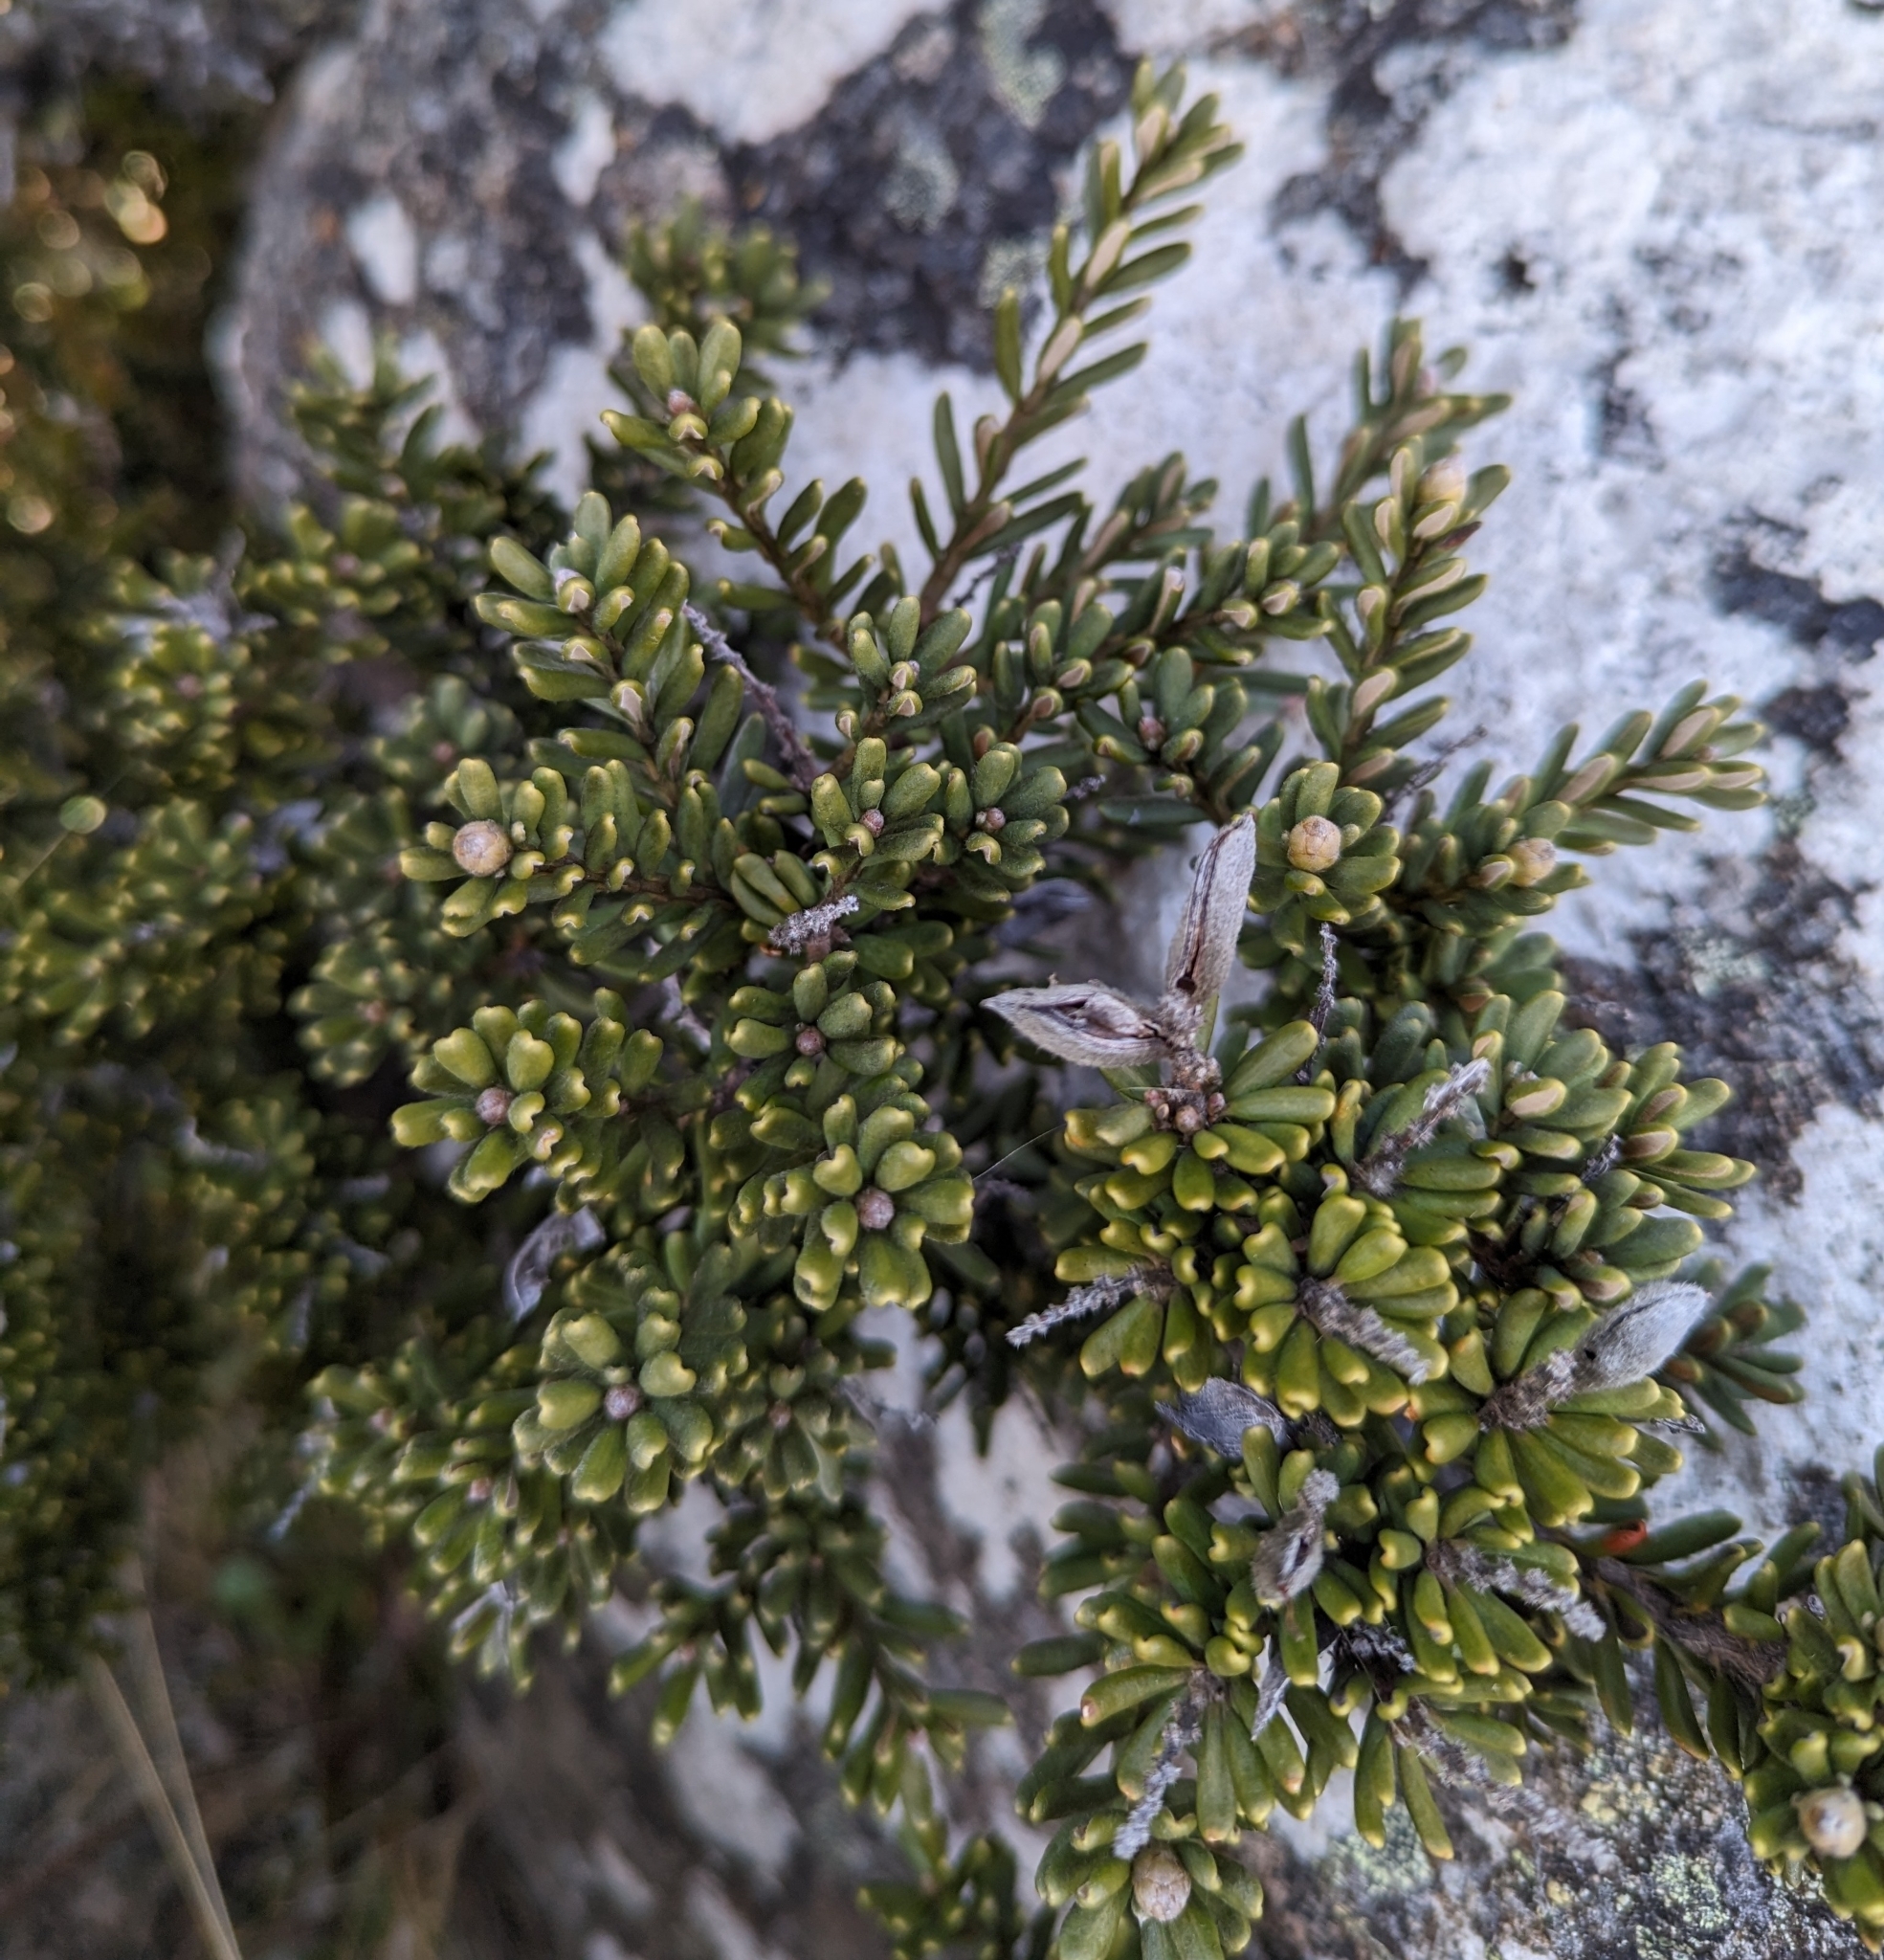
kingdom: Plantae
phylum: Tracheophyta
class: Magnoliopsida
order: Proteales
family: Proteaceae
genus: Orites
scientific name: Orites revolutus
